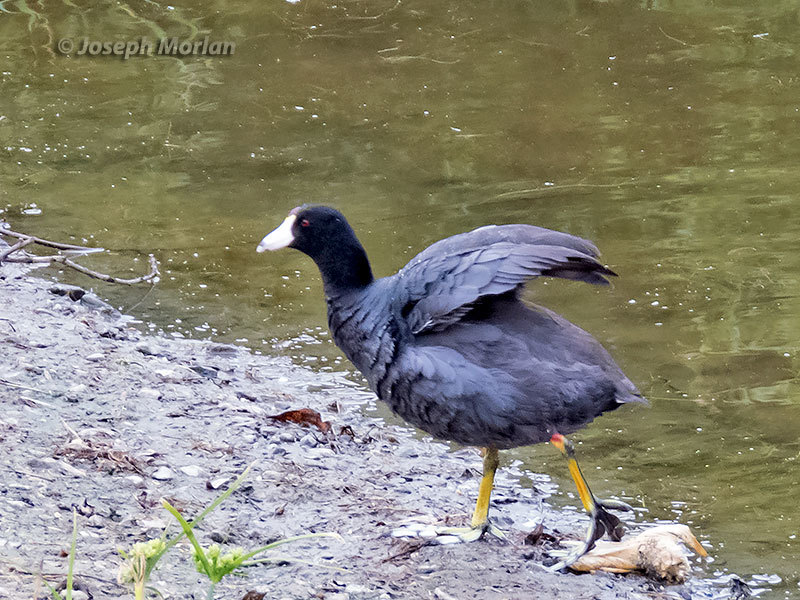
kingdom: Animalia
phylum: Chordata
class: Aves
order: Gruiformes
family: Rallidae
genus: Fulica
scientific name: Fulica americana
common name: American coot
